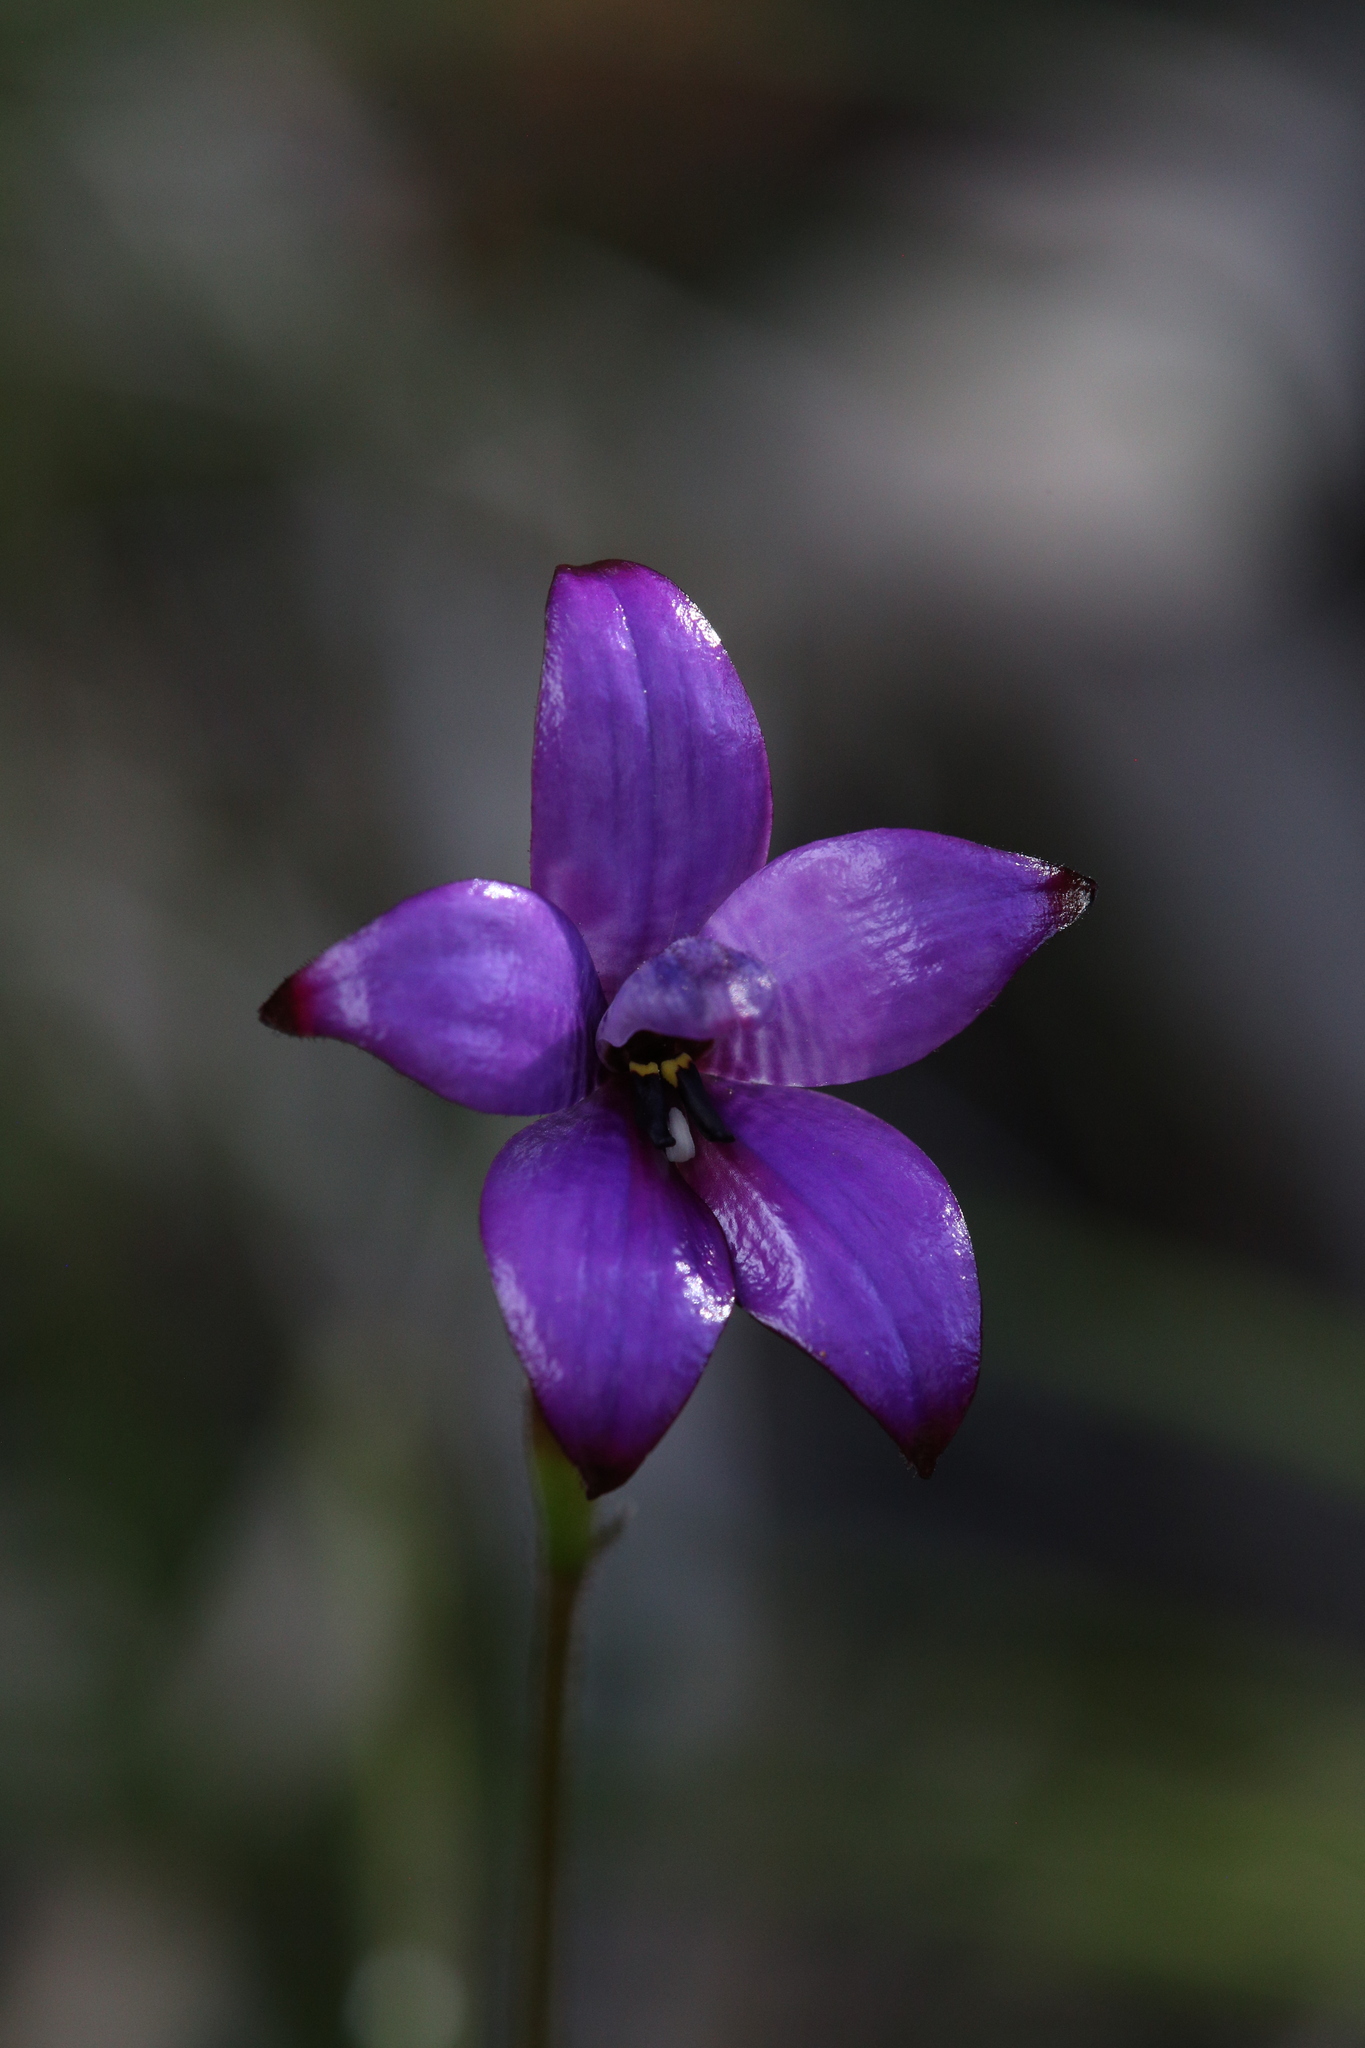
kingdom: Plantae
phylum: Tracheophyta
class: Liliopsida
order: Asparagales
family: Orchidaceae
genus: Caladenia
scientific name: Caladenia brunonis
